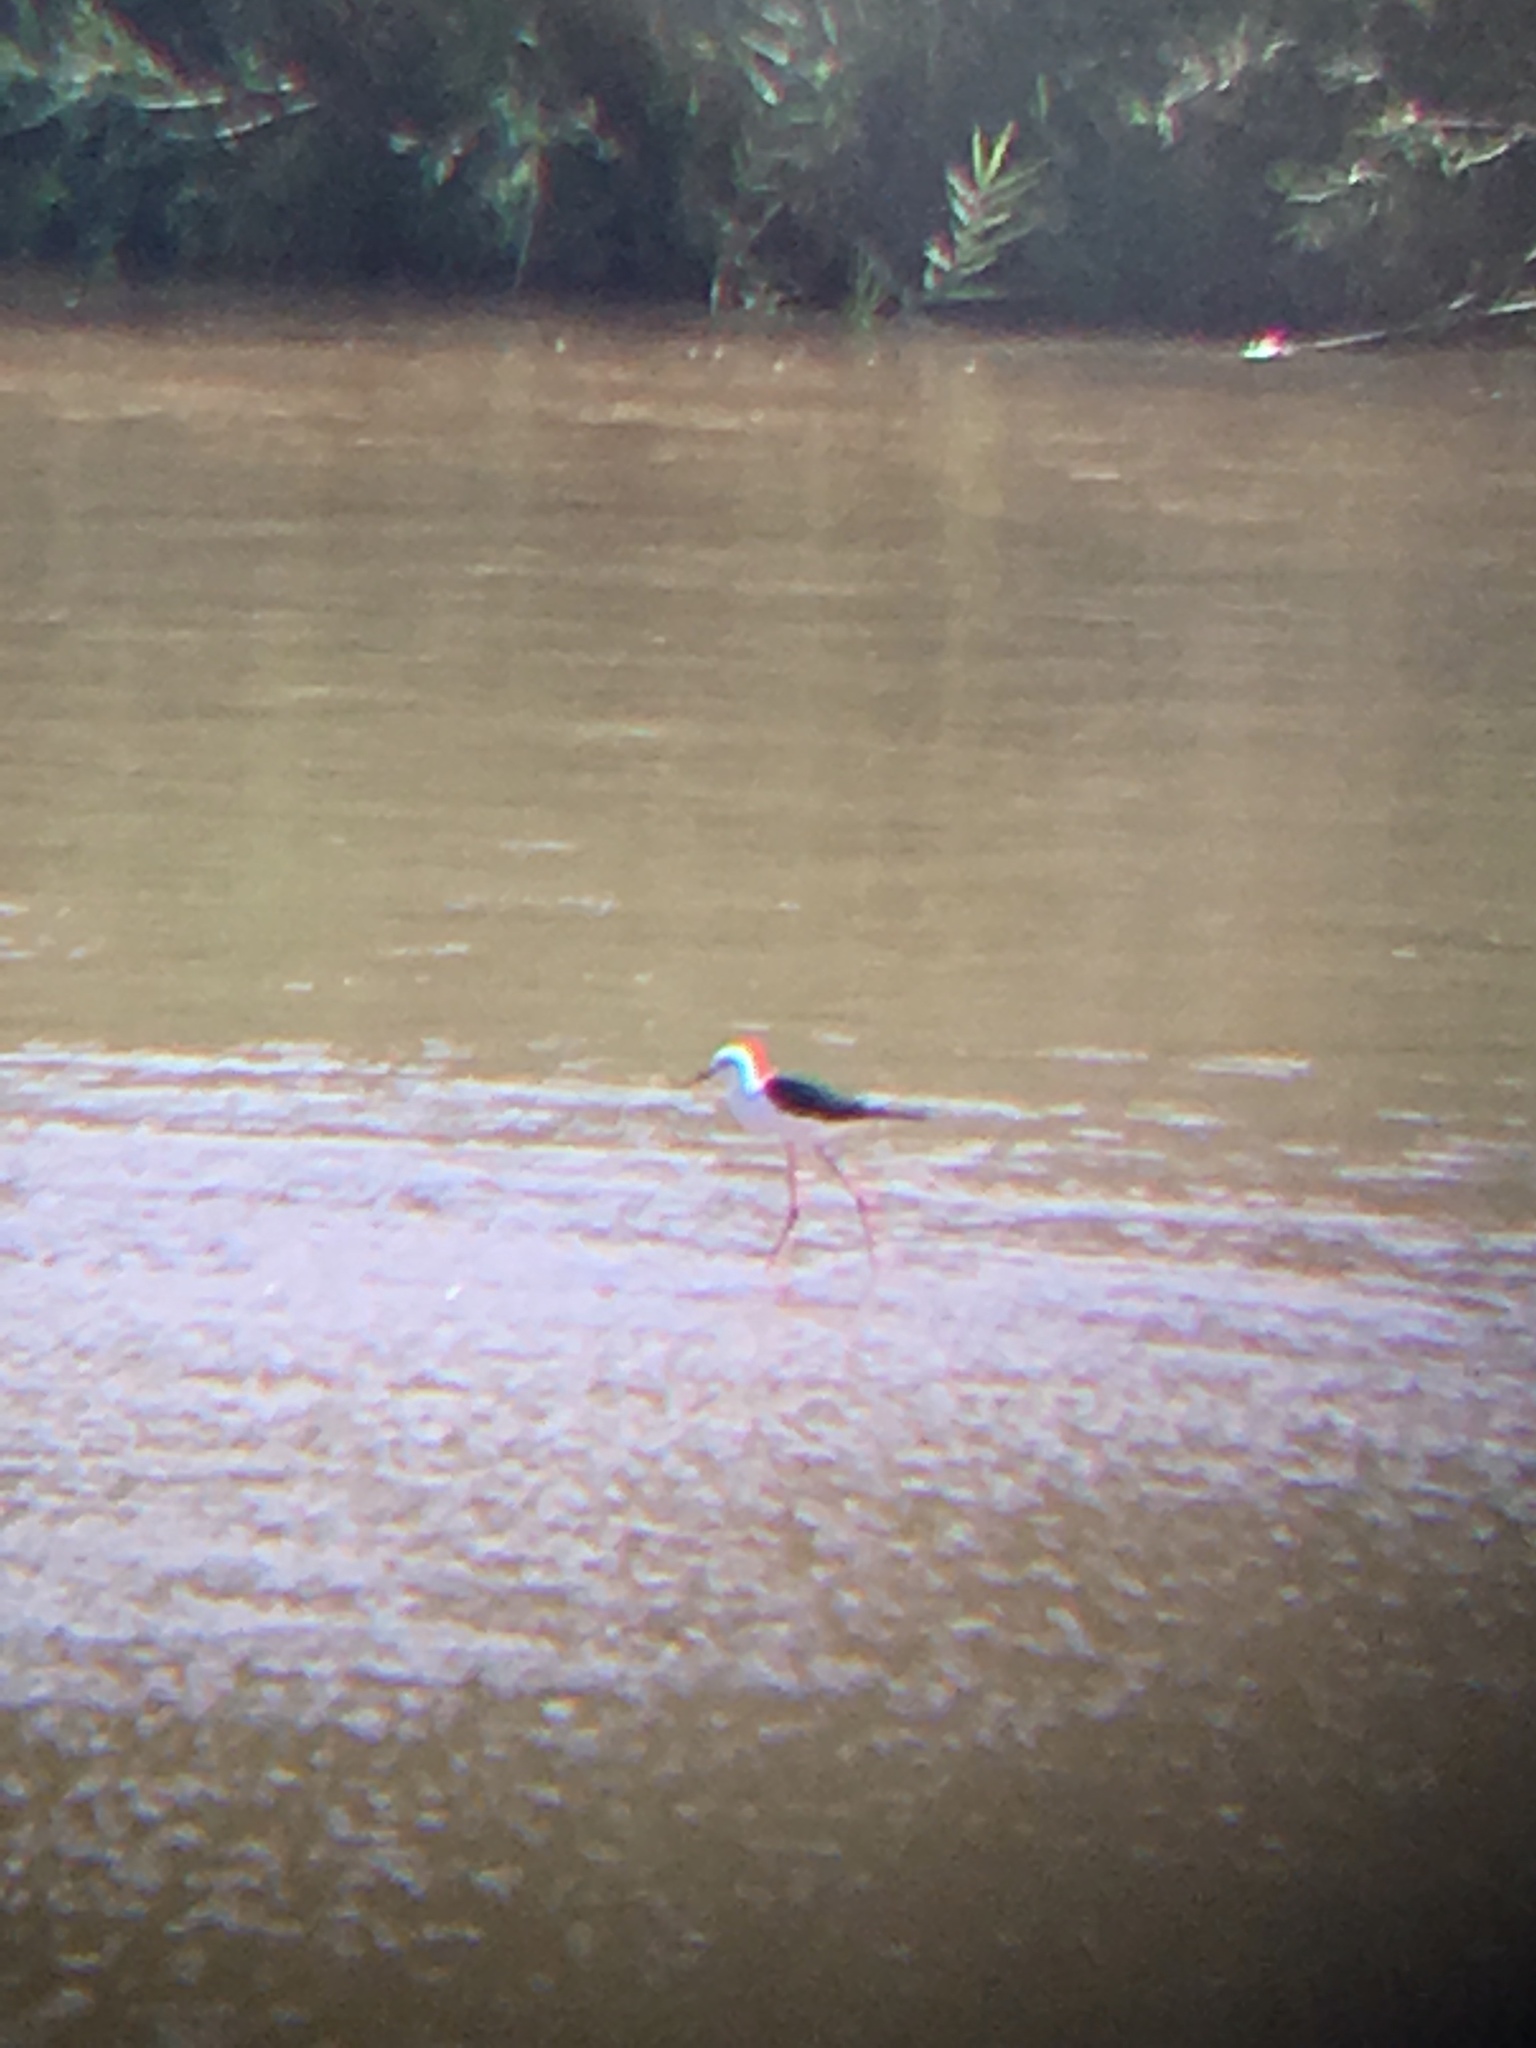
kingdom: Animalia
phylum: Chordata
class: Aves
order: Charadriiformes
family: Recurvirostridae
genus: Himantopus
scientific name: Himantopus himantopus
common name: Black-winged stilt
